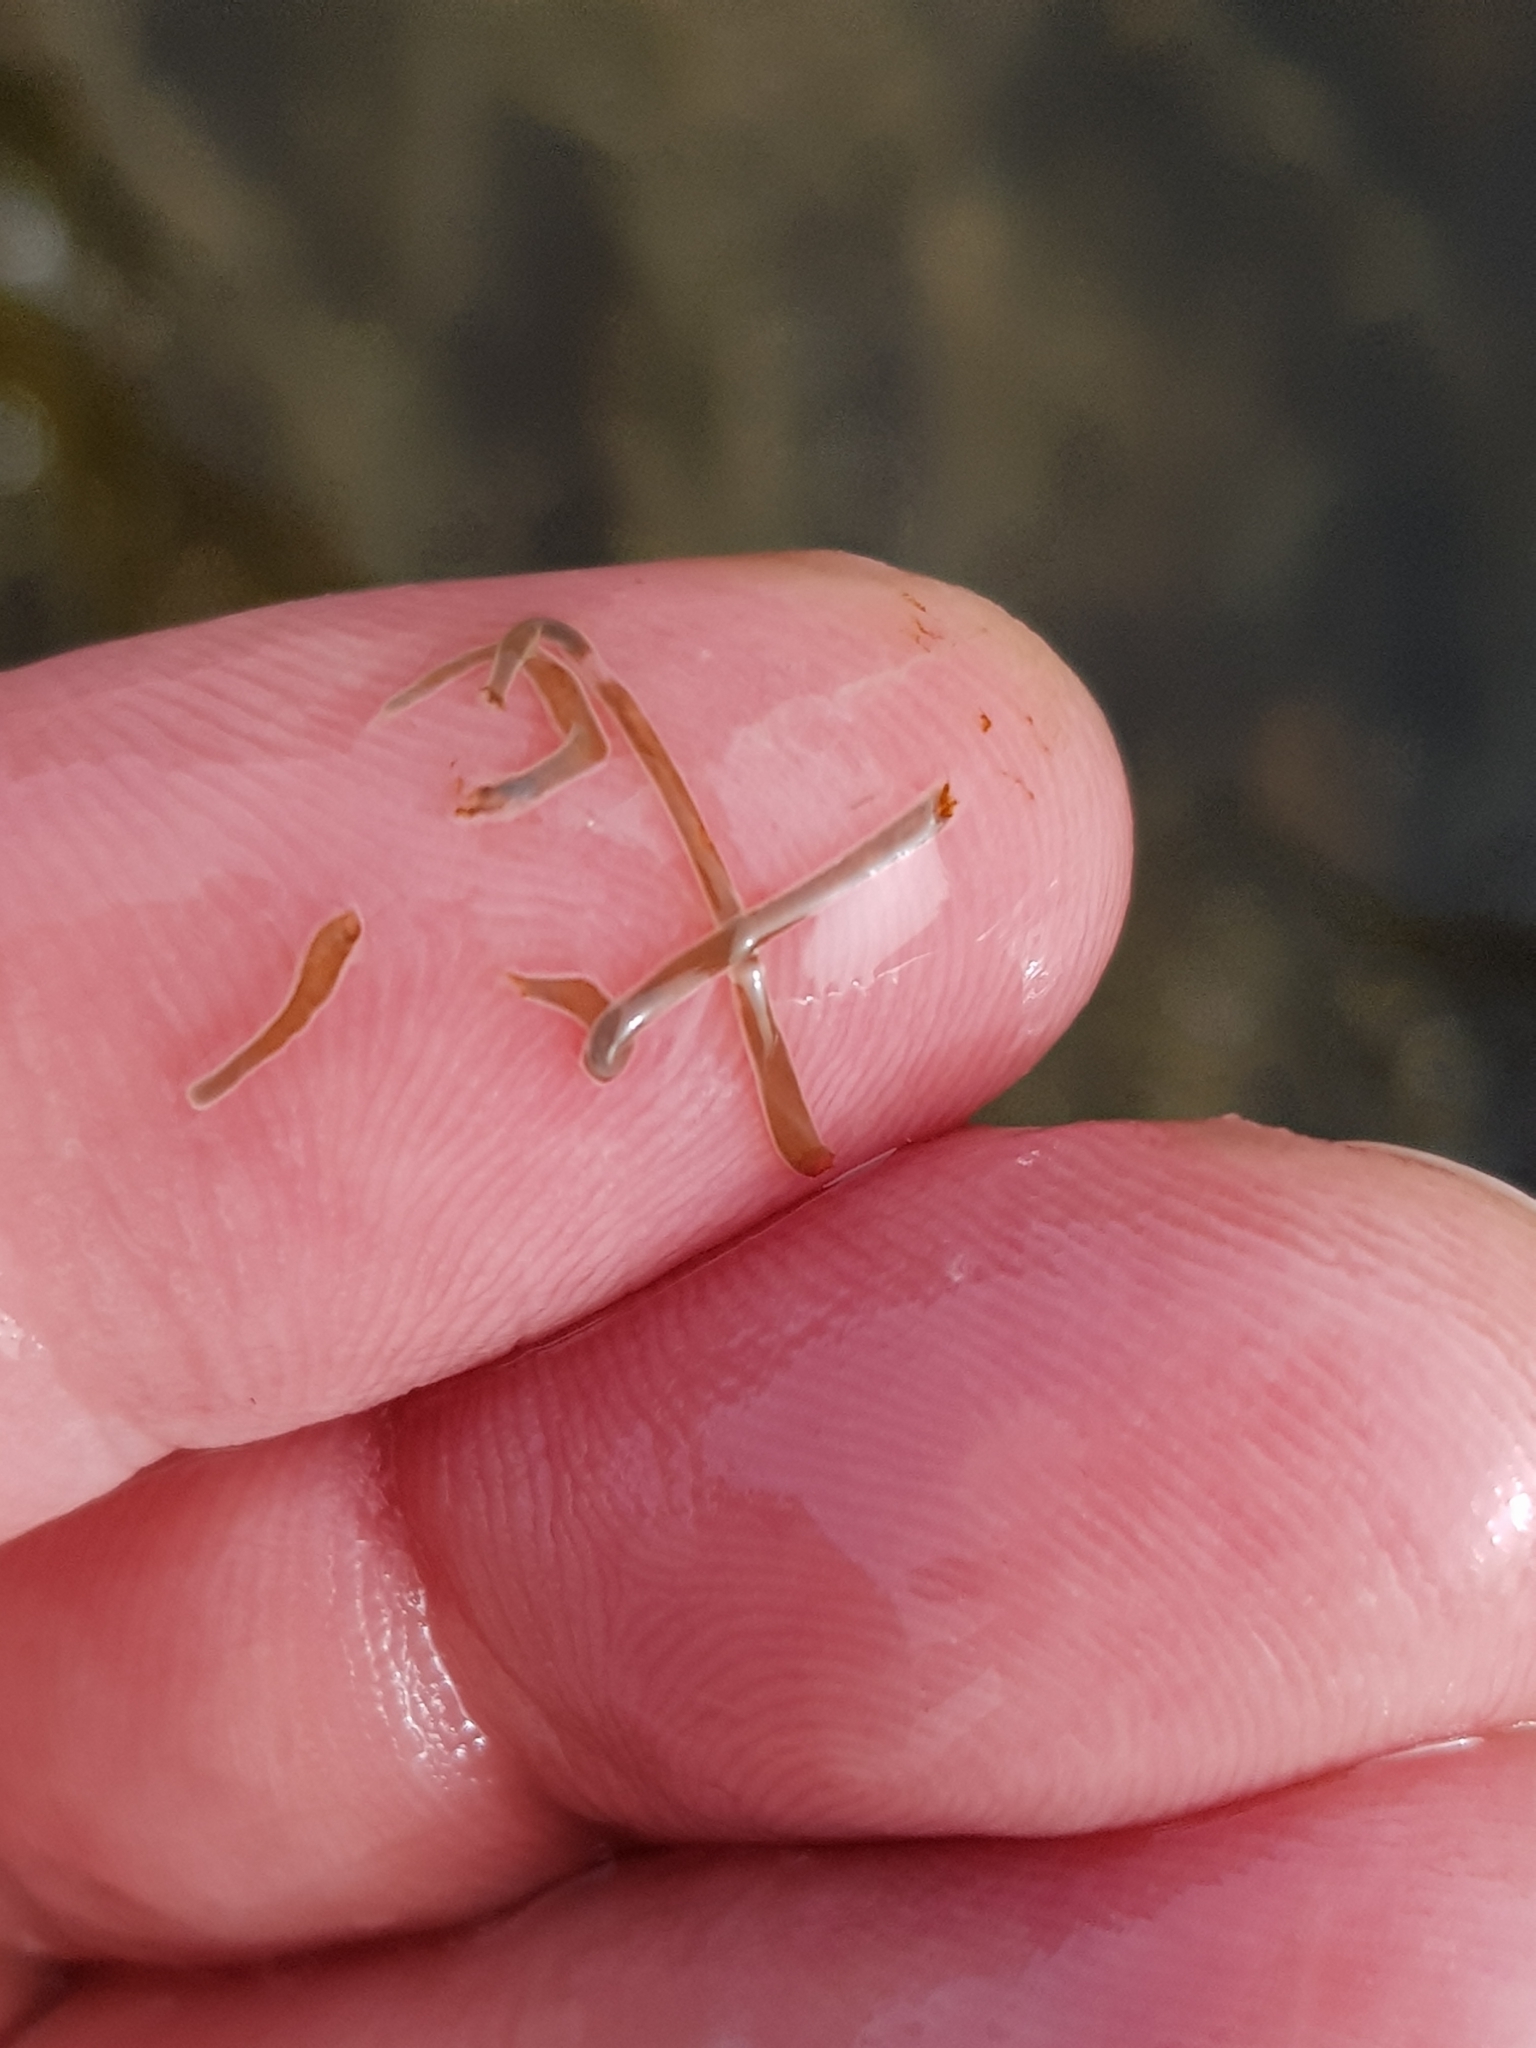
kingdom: Animalia
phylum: Cnidaria
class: Anthozoa
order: Actiniaria
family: Actiniidae
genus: Anemonia
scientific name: Anemonia viridis
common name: Snakelocks anemone
